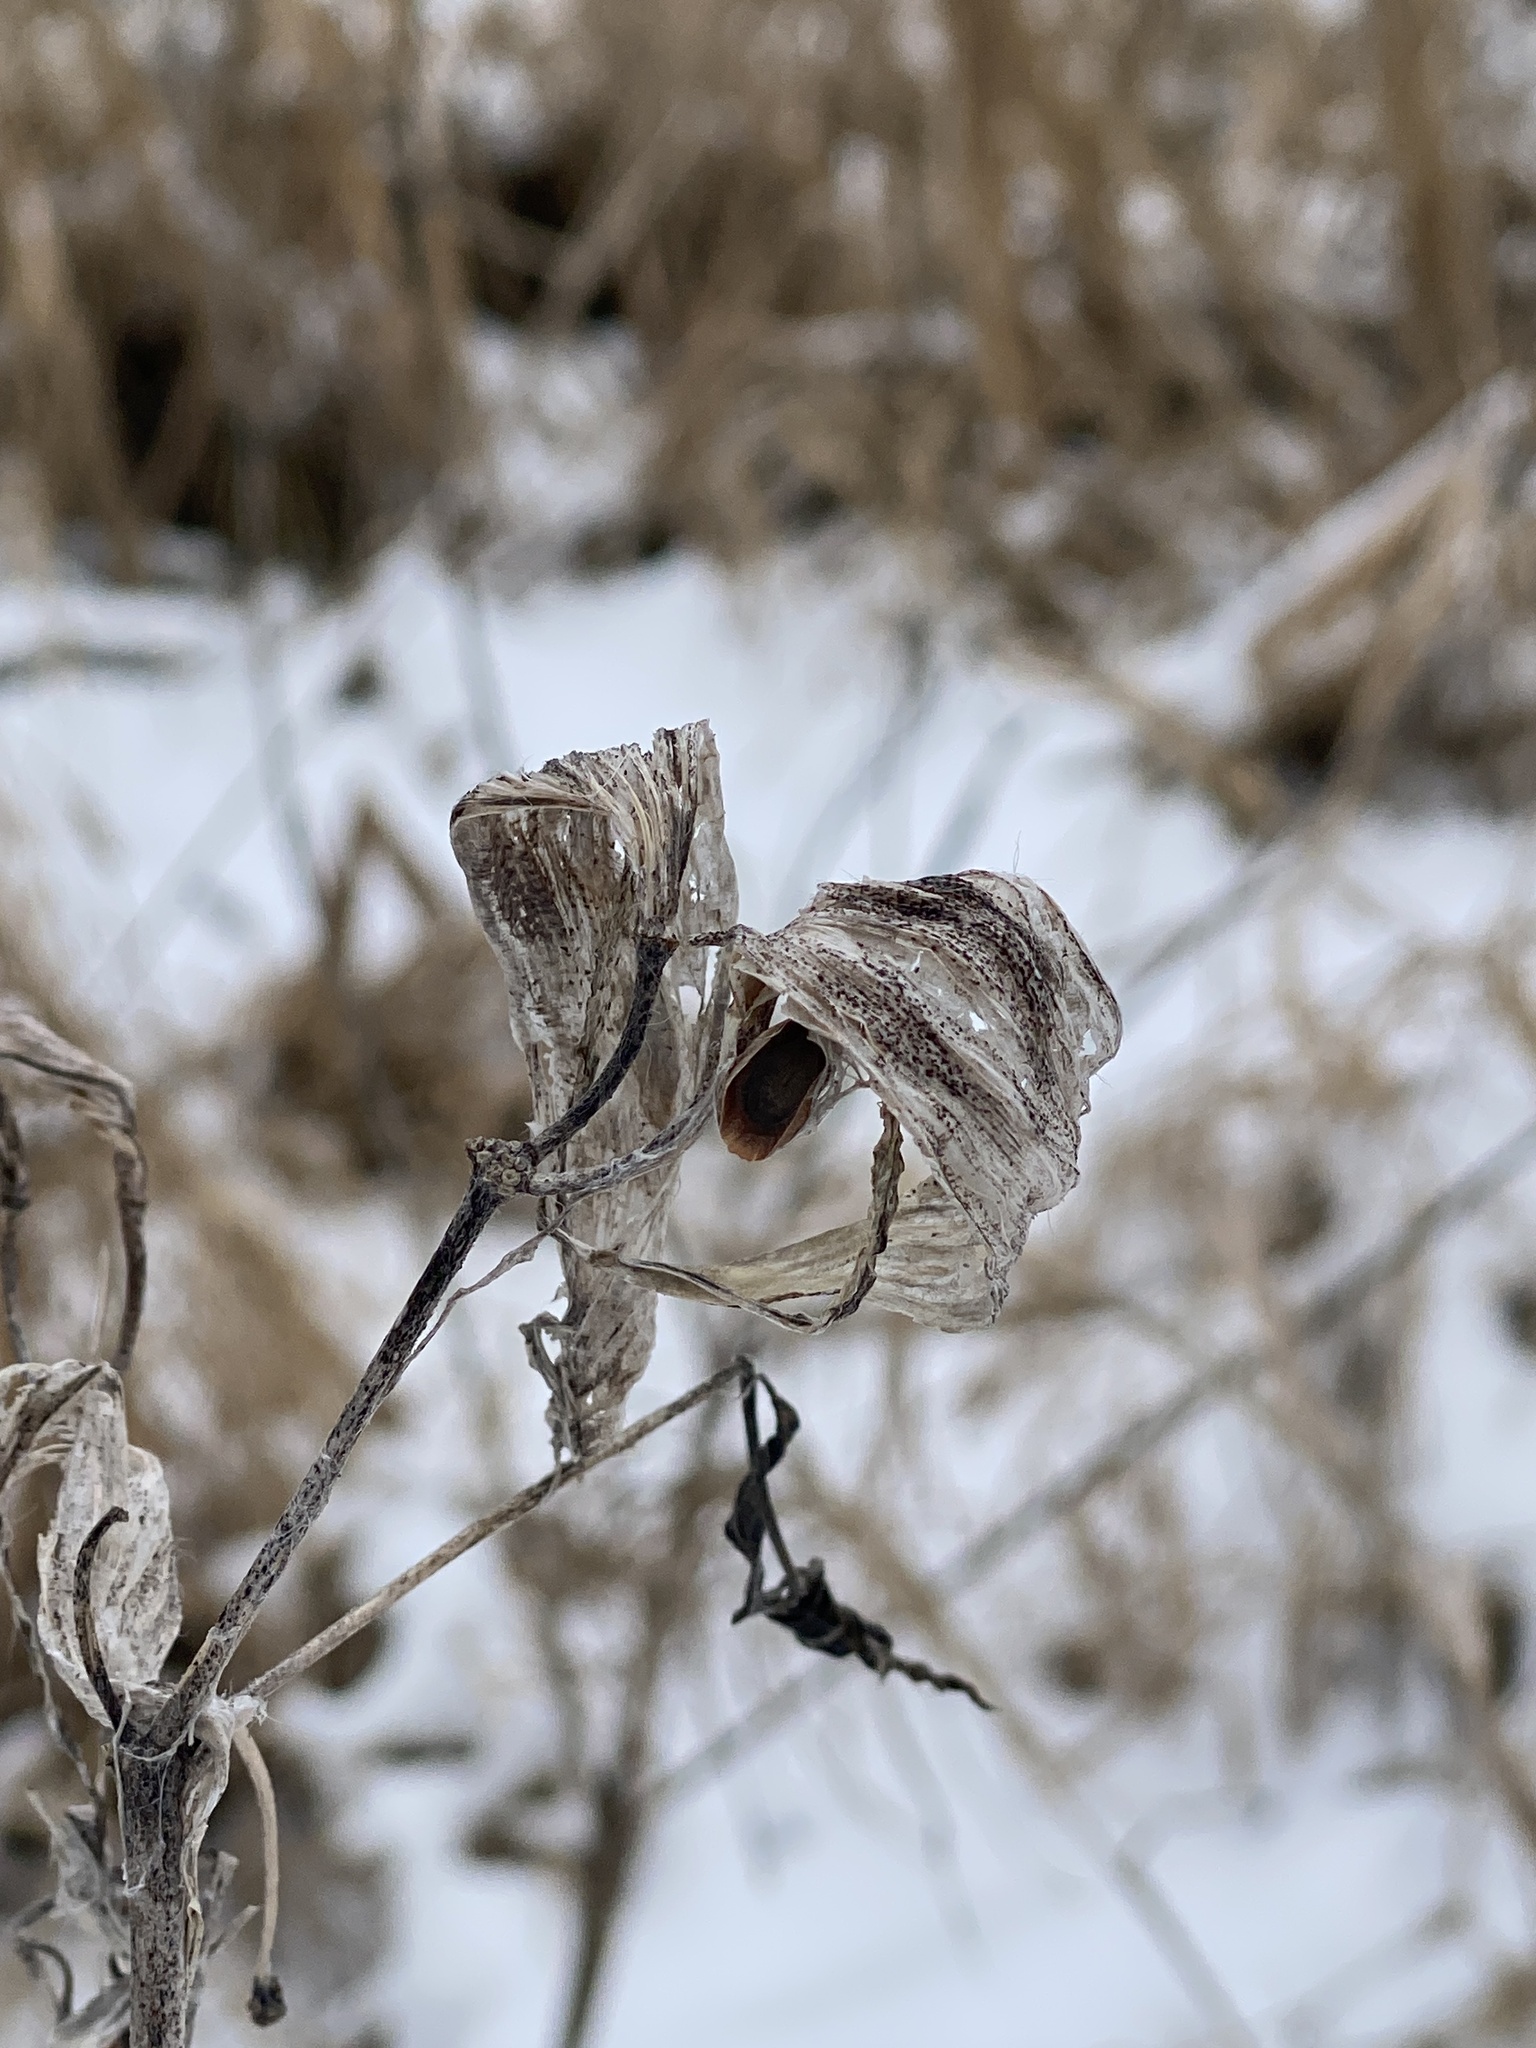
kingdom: Plantae
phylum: Tracheophyta
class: Magnoliopsida
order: Gentianales
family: Apocynaceae
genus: Asclepias
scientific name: Asclepias incarnata
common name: Swamp milkweed
